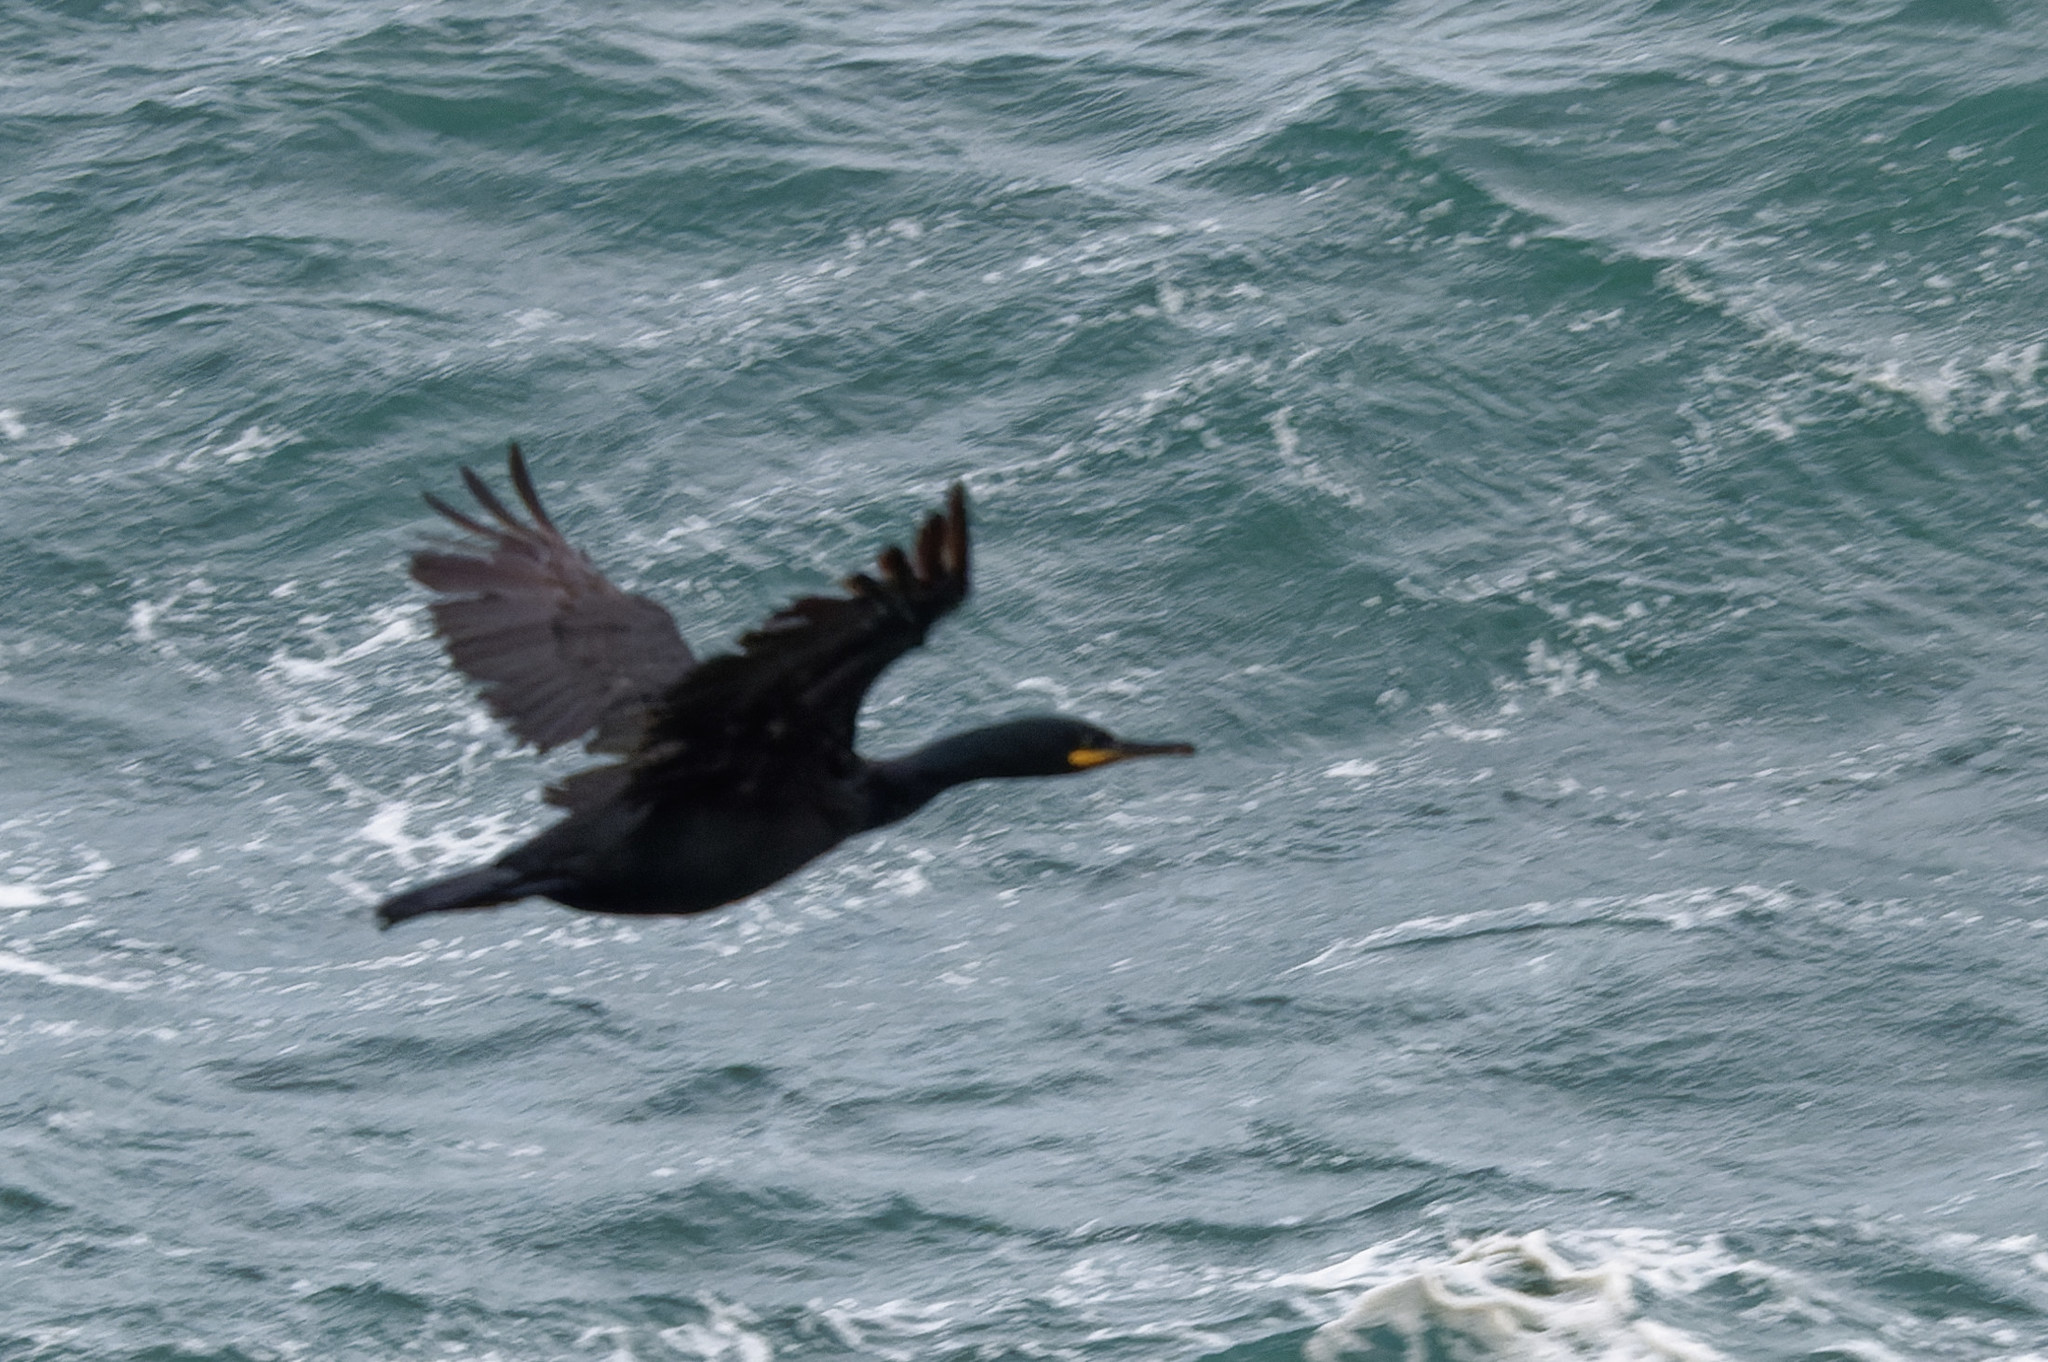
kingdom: Animalia
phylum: Chordata
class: Aves
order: Suliformes
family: Phalacrocoracidae
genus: Phalacrocorax
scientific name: Phalacrocorax aristotelis
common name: European shag
